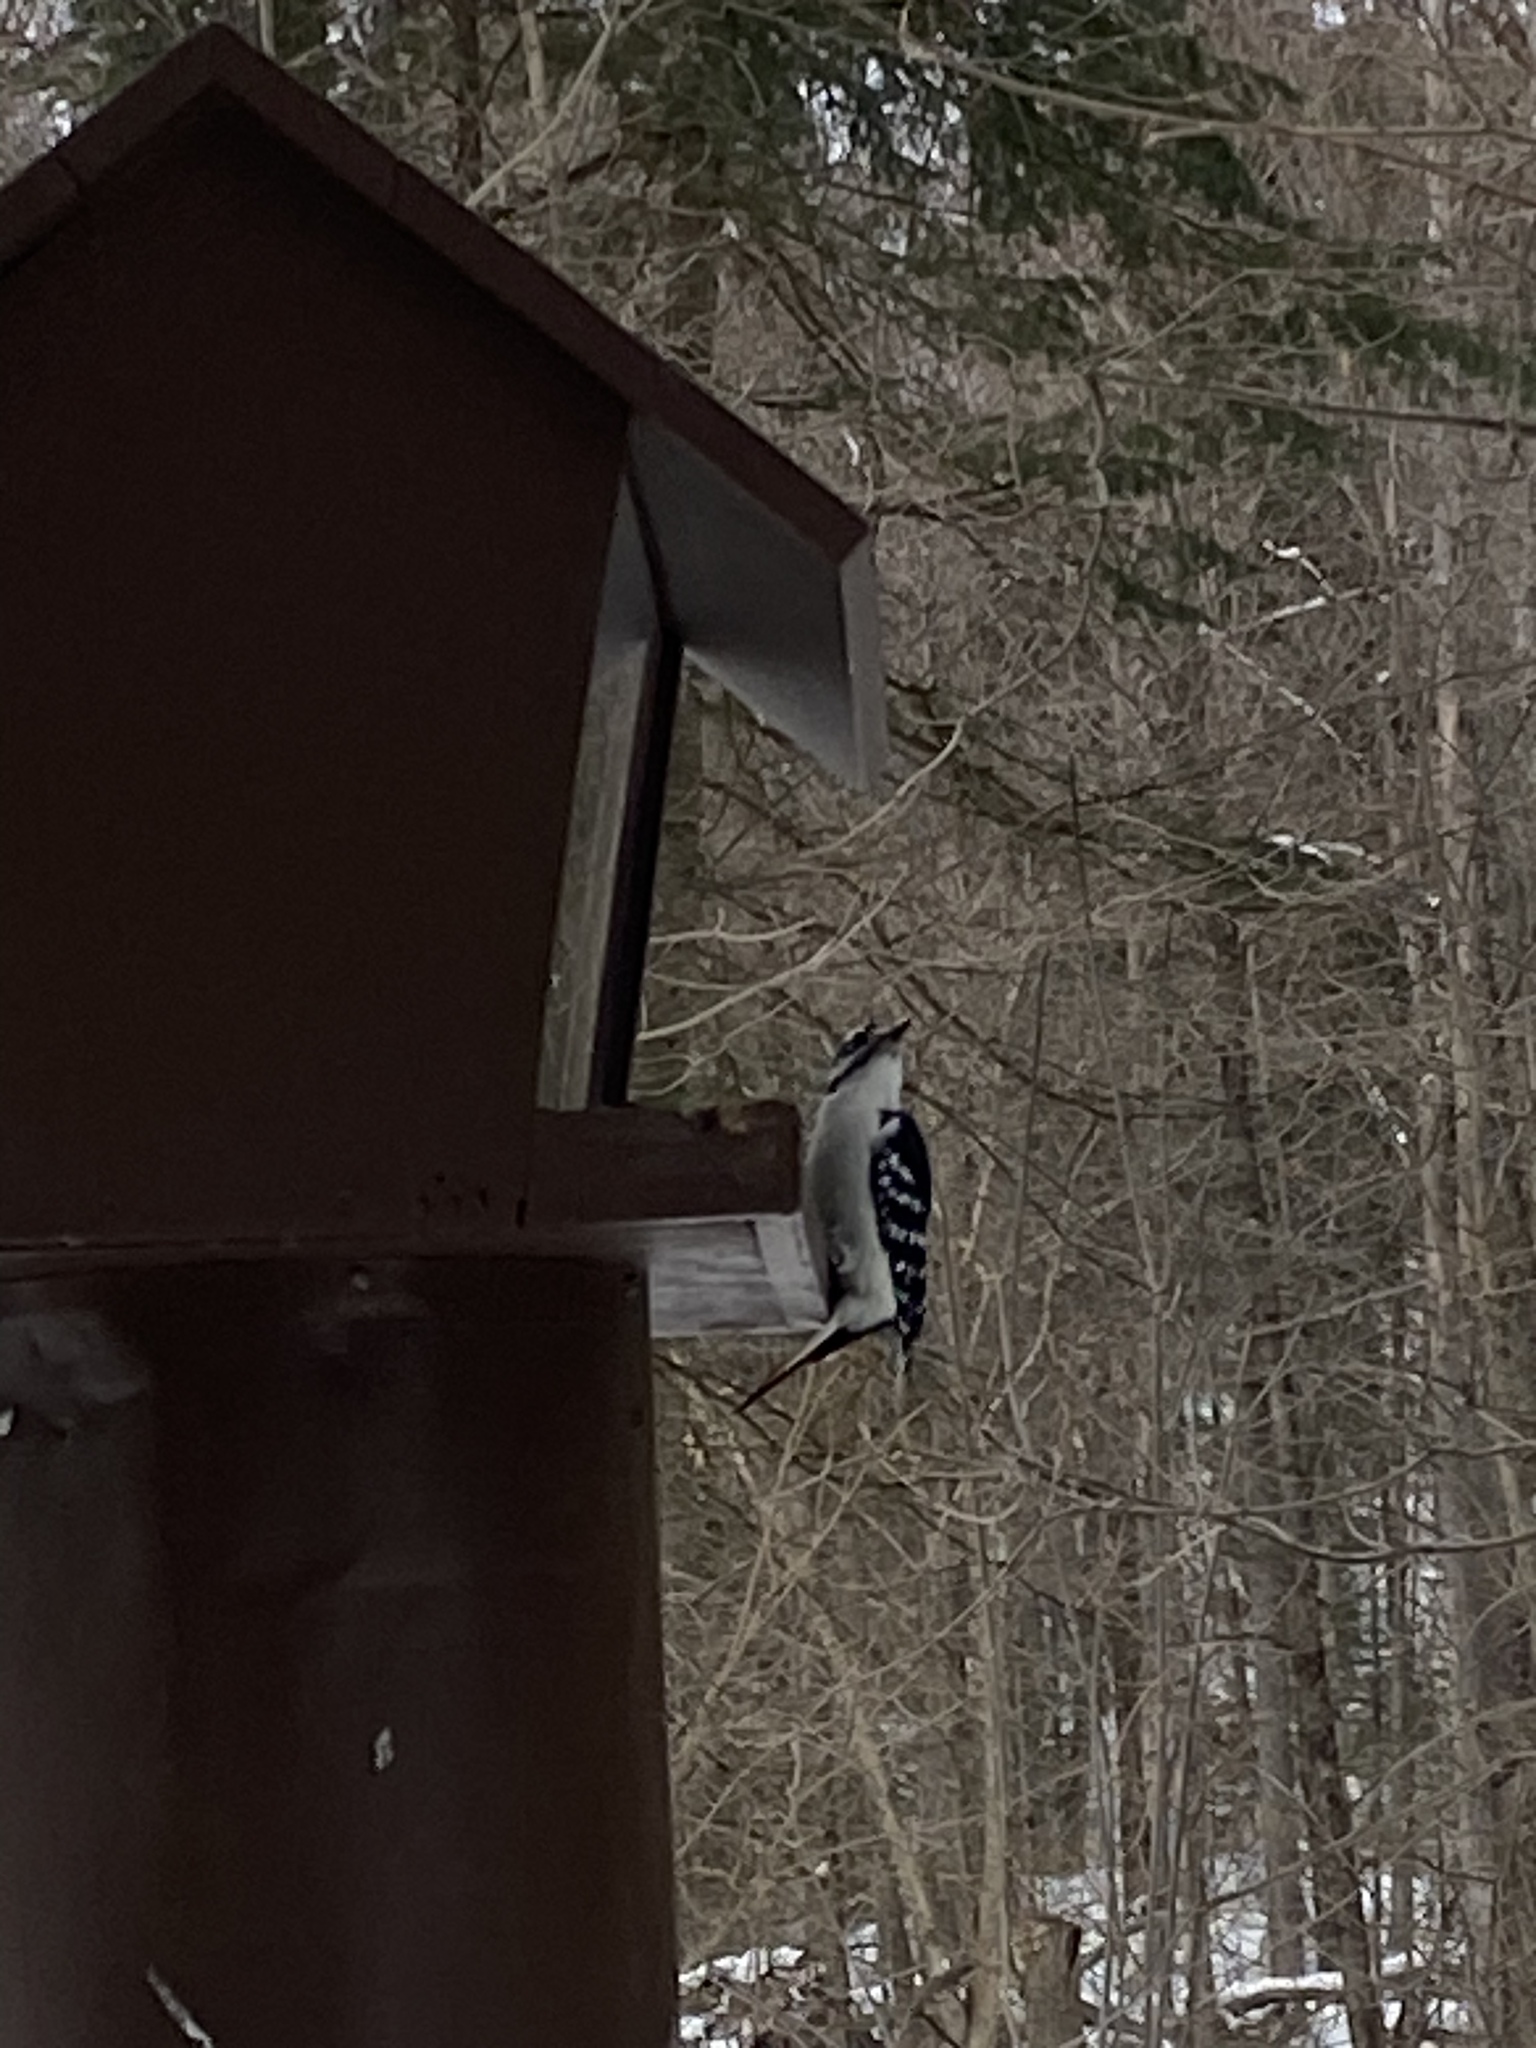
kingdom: Animalia
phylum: Chordata
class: Aves
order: Piciformes
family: Picidae
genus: Leuconotopicus
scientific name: Leuconotopicus villosus
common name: Hairy woodpecker
